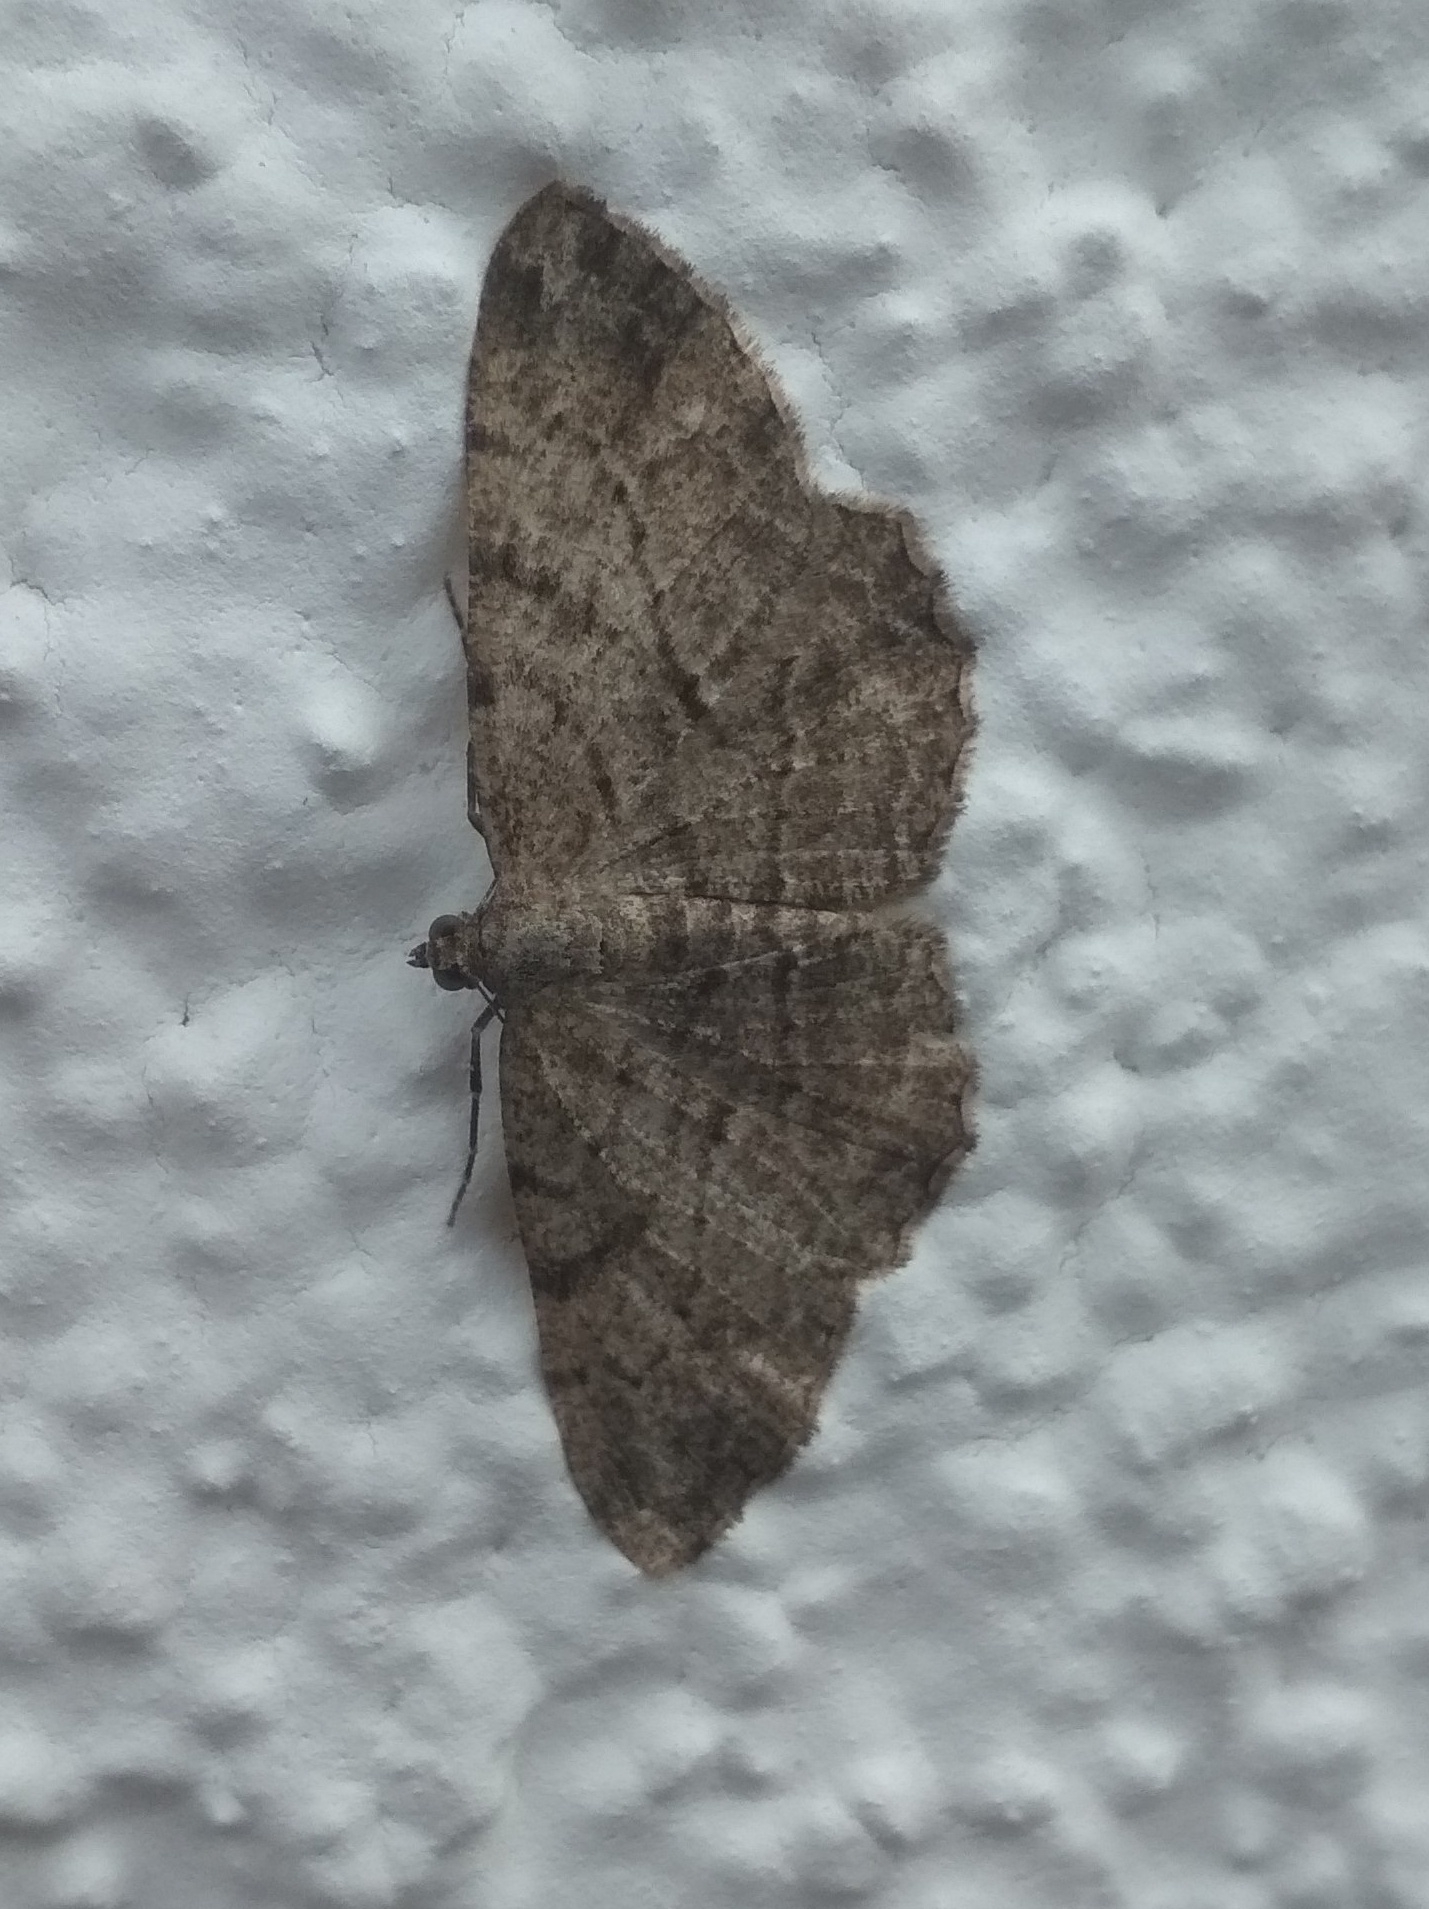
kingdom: Animalia
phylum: Arthropoda
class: Insecta
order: Lepidoptera
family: Geometridae
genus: Peribatodes
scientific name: Peribatodes rhomboidaria
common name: Willow beauty
